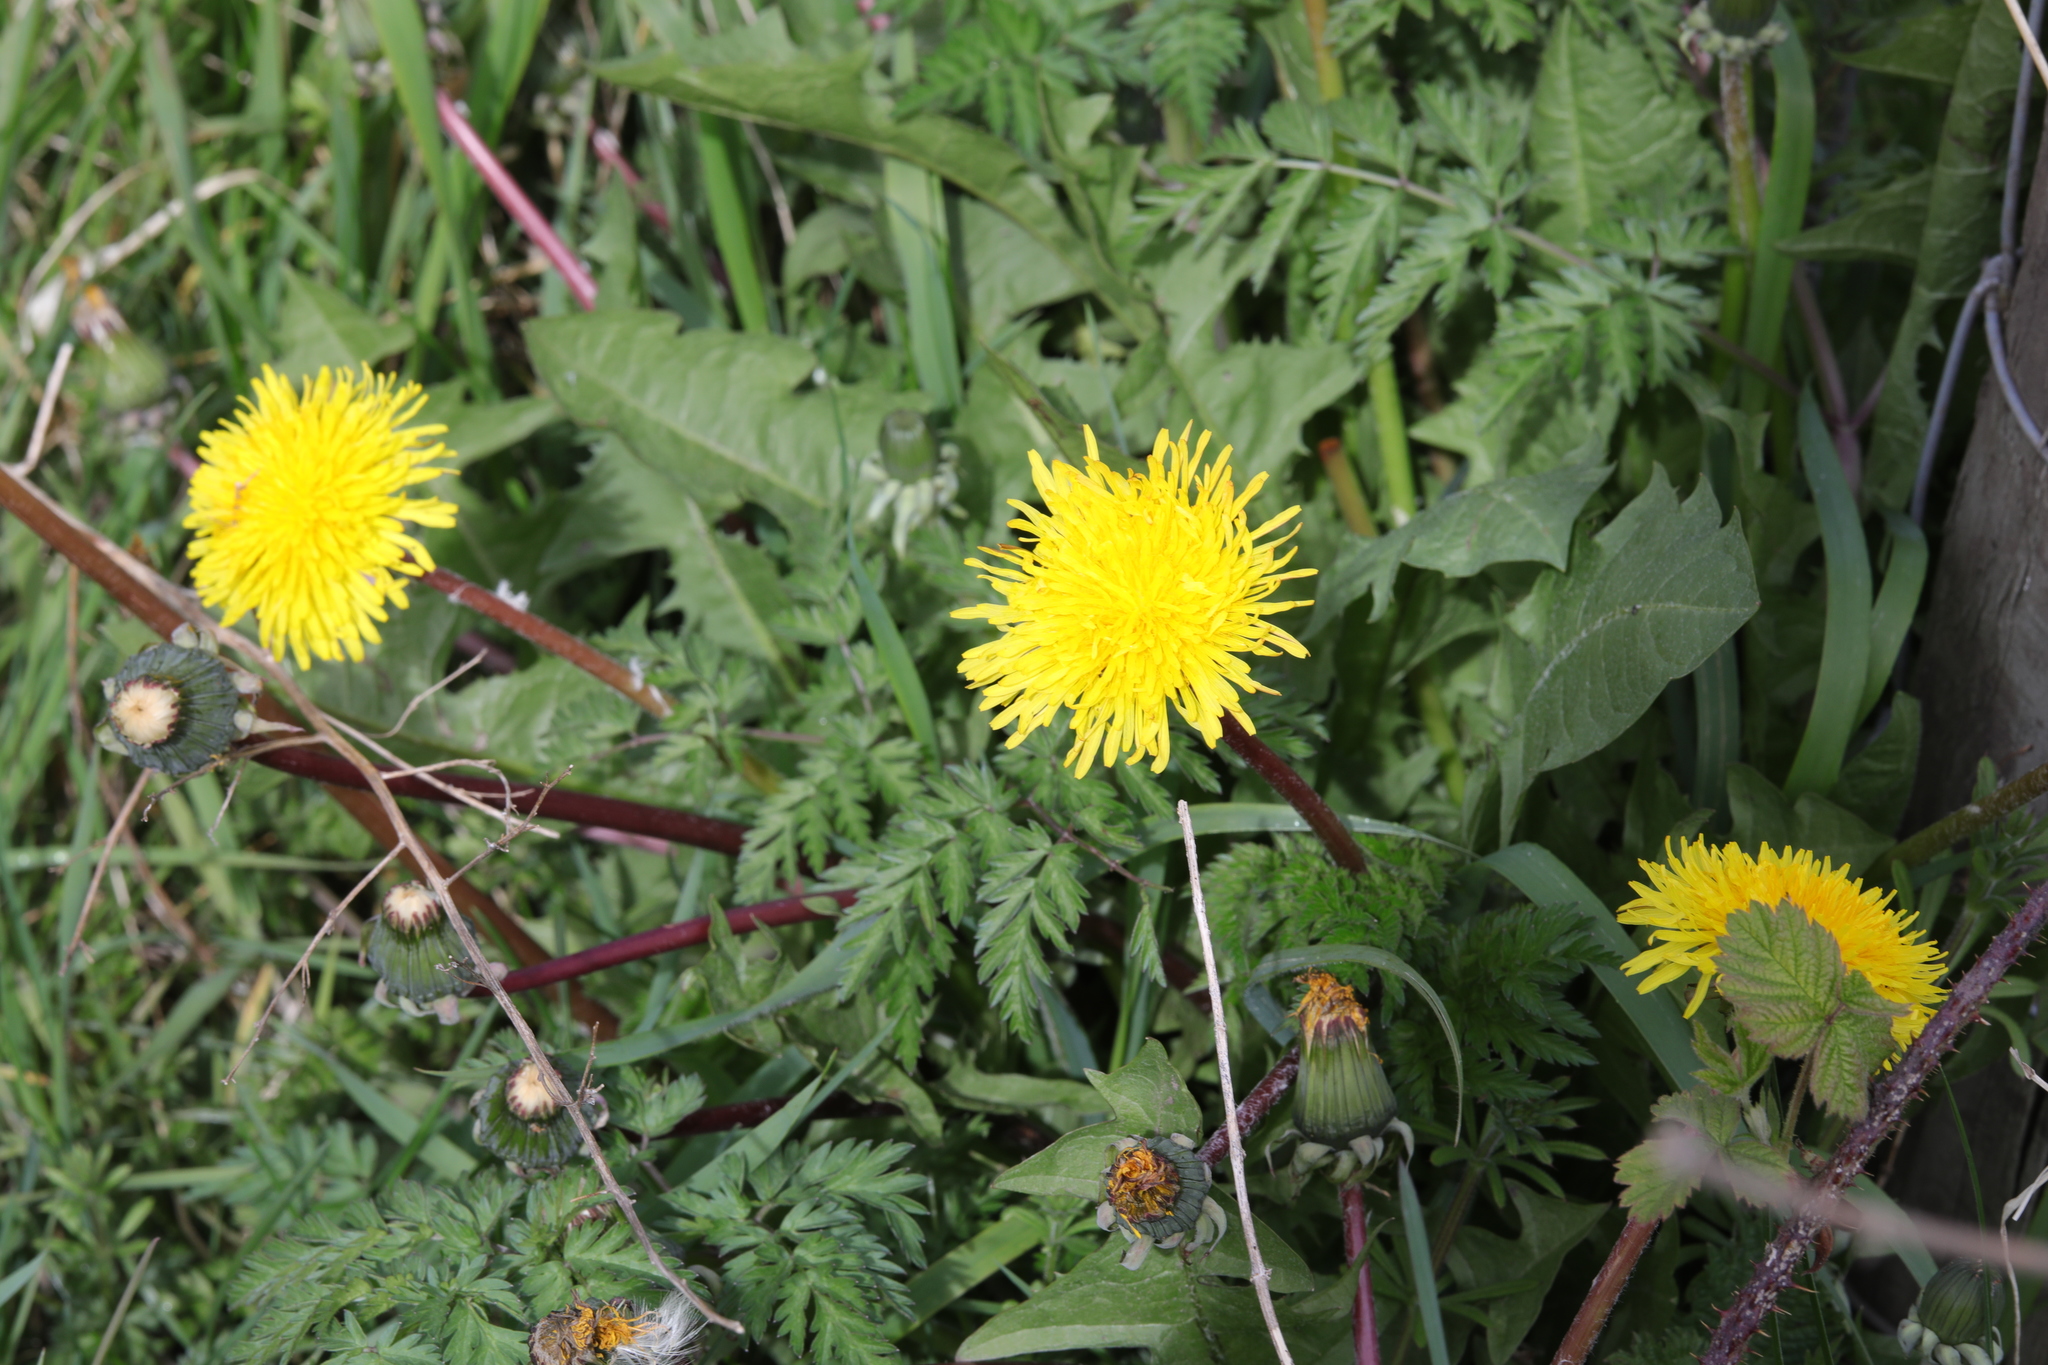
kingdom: Plantae
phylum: Tracheophyta
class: Magnoliopsida
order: Asterales
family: Asteraceae
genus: Taraxacum
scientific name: Taraxacum officinale
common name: Common dandelion
